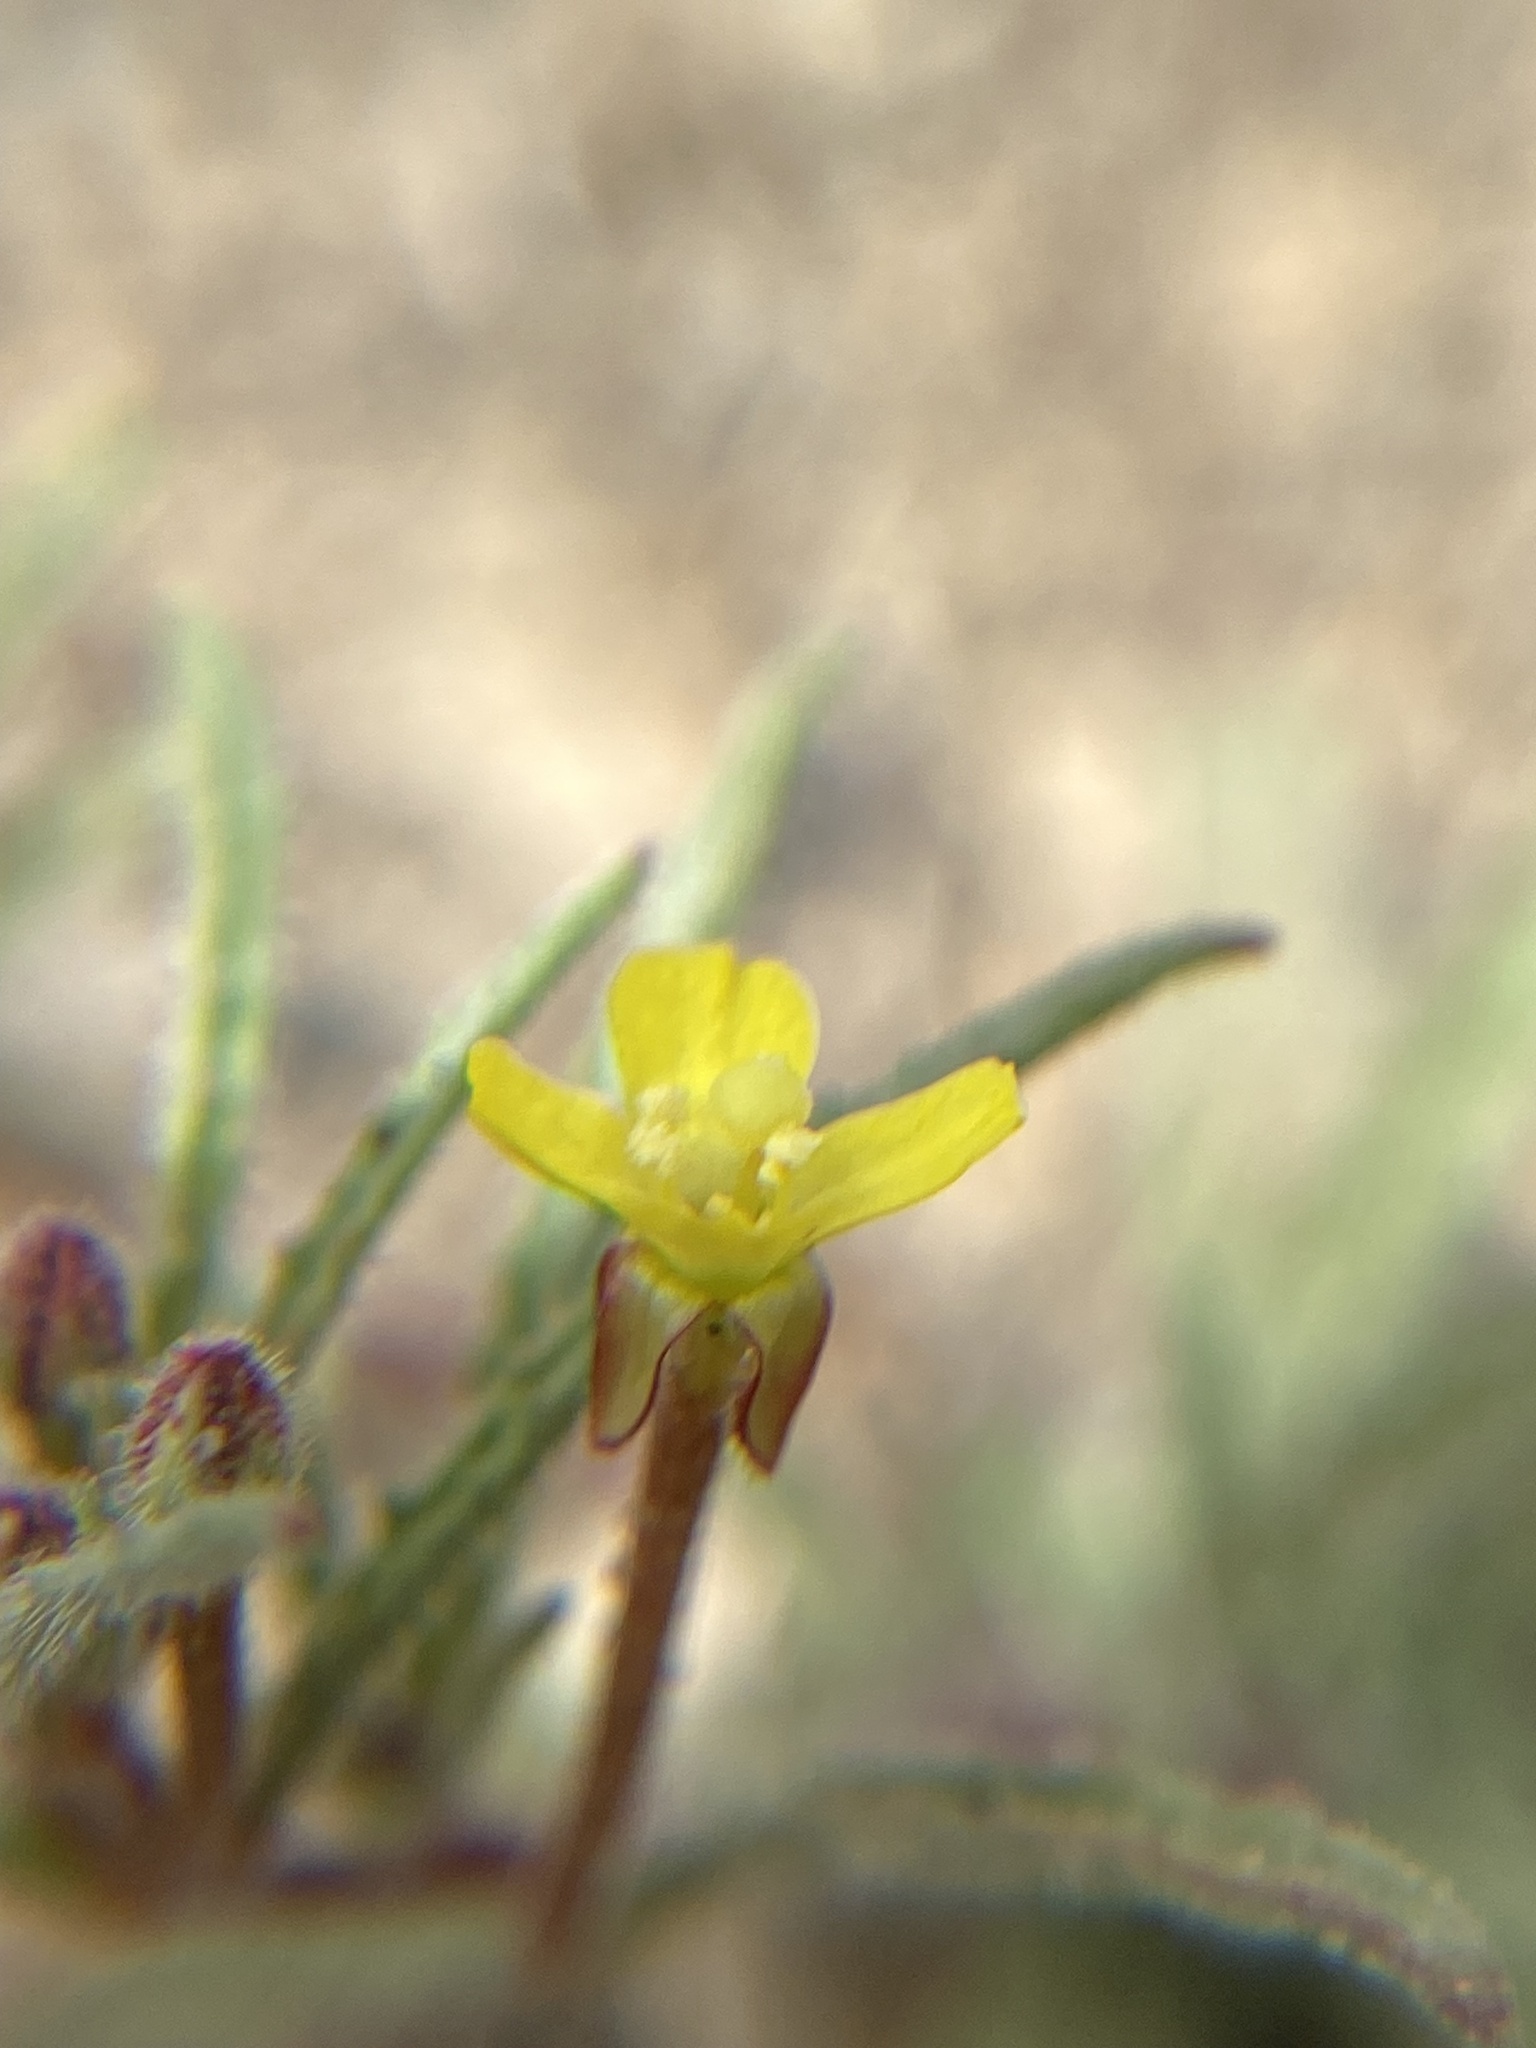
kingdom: Plantae
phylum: Tracheophyta
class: Magnoliopsida
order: Myrtales
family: Onagraceae
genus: Camissonia
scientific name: Camissonia pusilla
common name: Obscure camissonia
